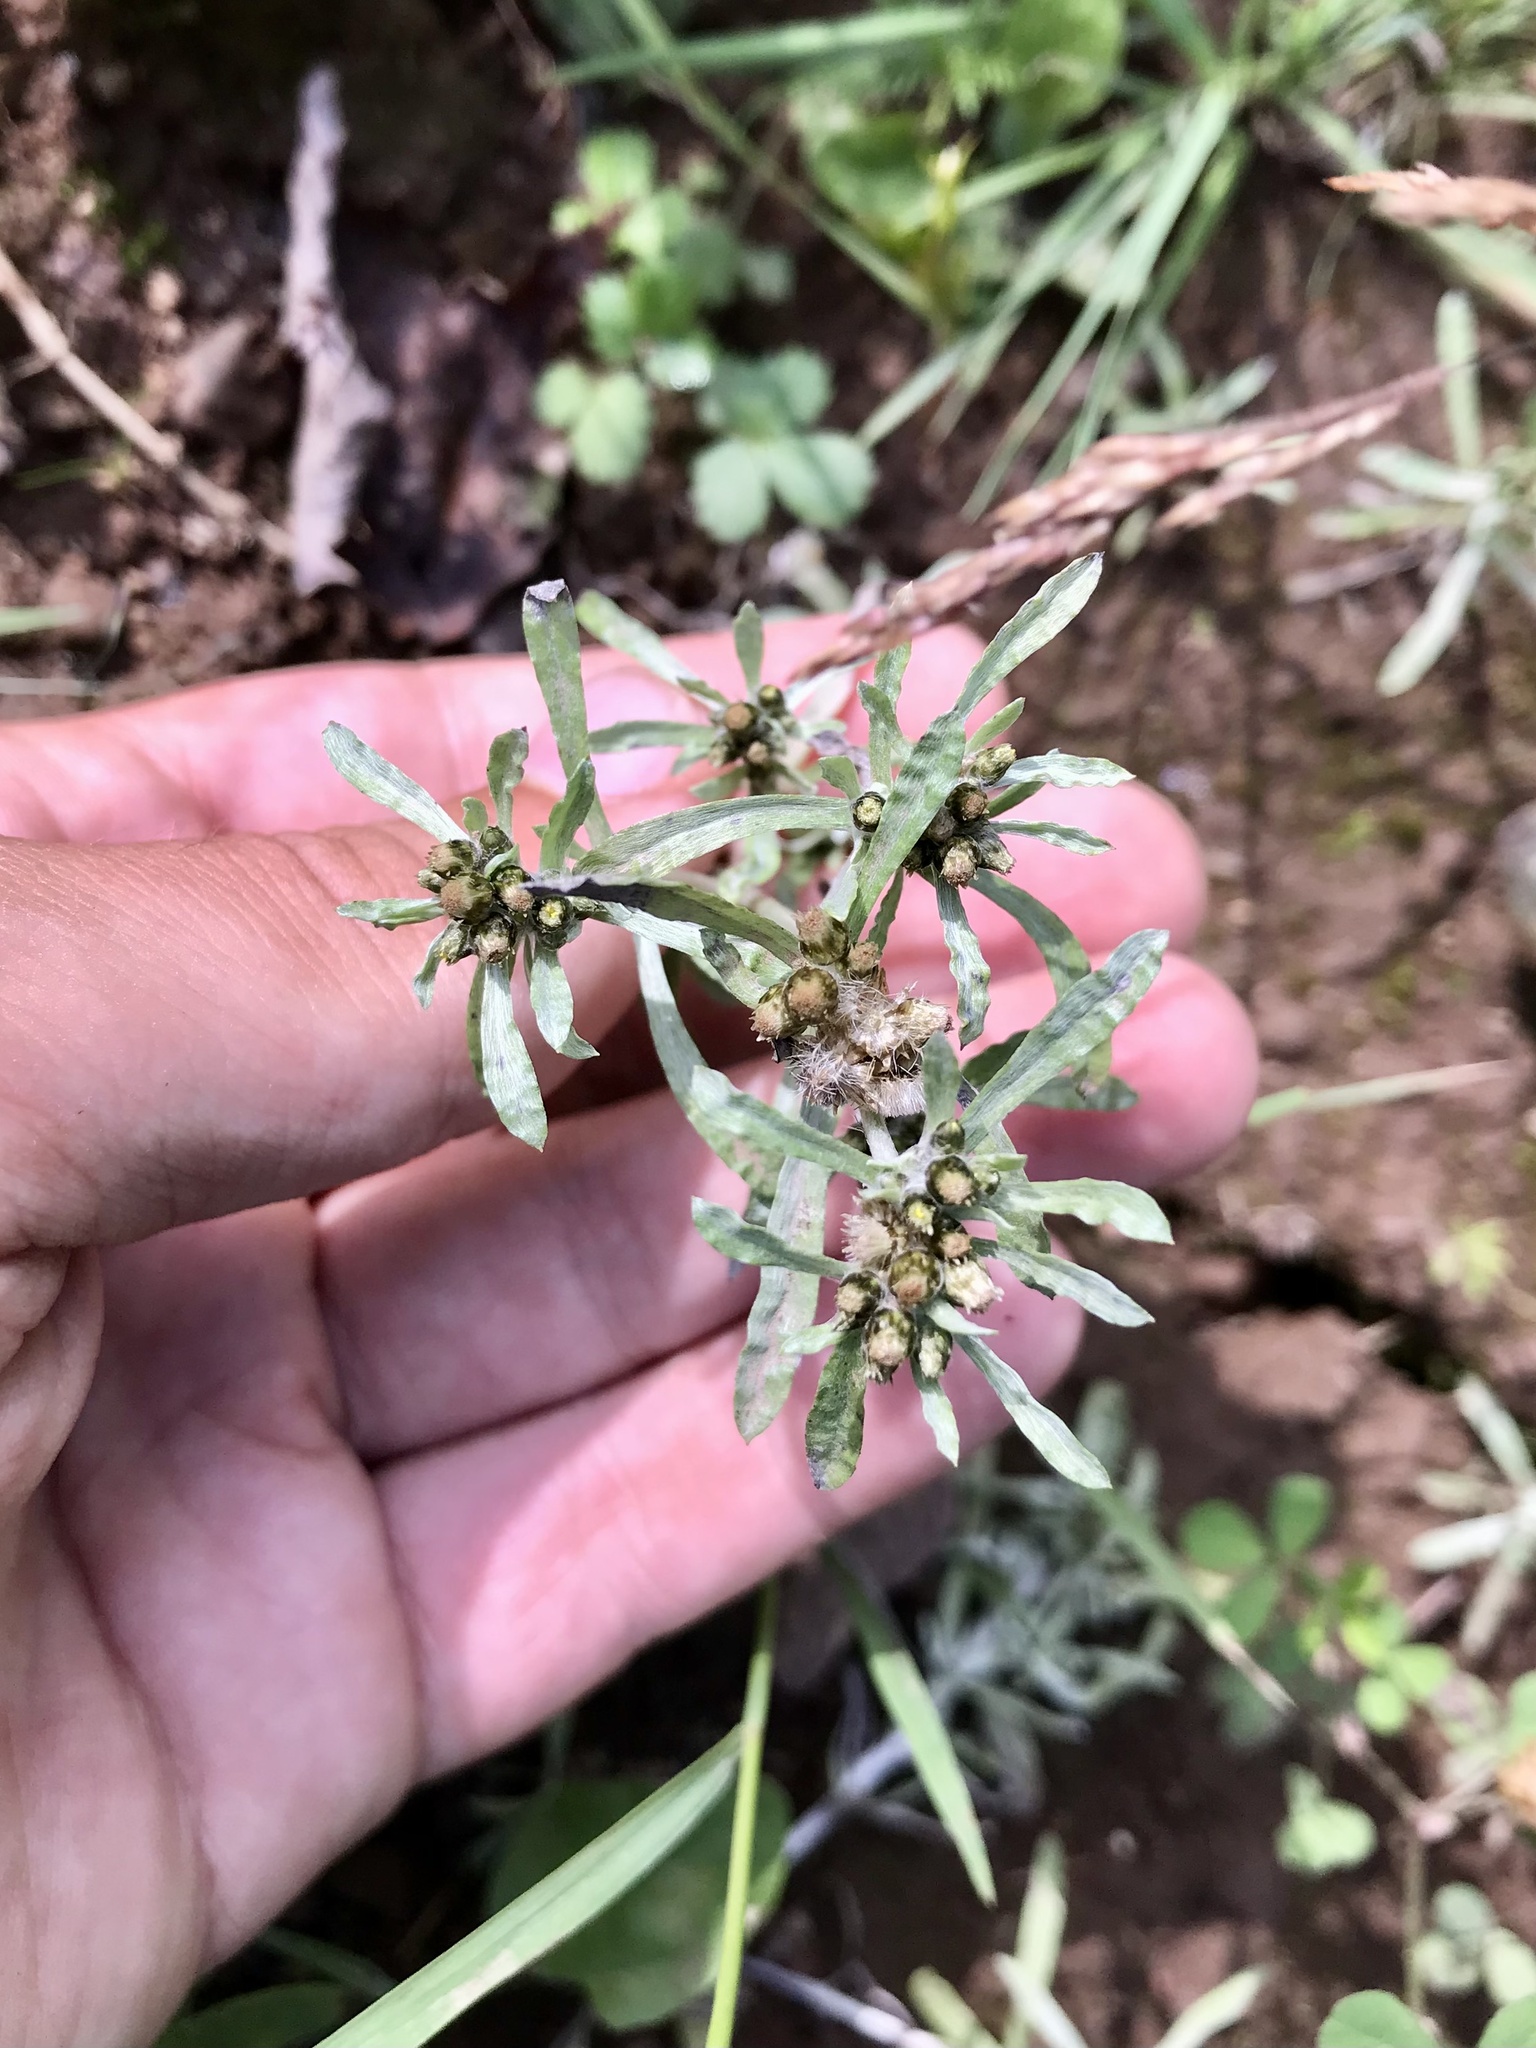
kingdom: Plantae
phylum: Tracheophyta
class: Magnoliopsida
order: Asterales
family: Asteraceae
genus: Gnaphalium
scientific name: Gnaphalium uliginosum
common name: Marsh cudweed
